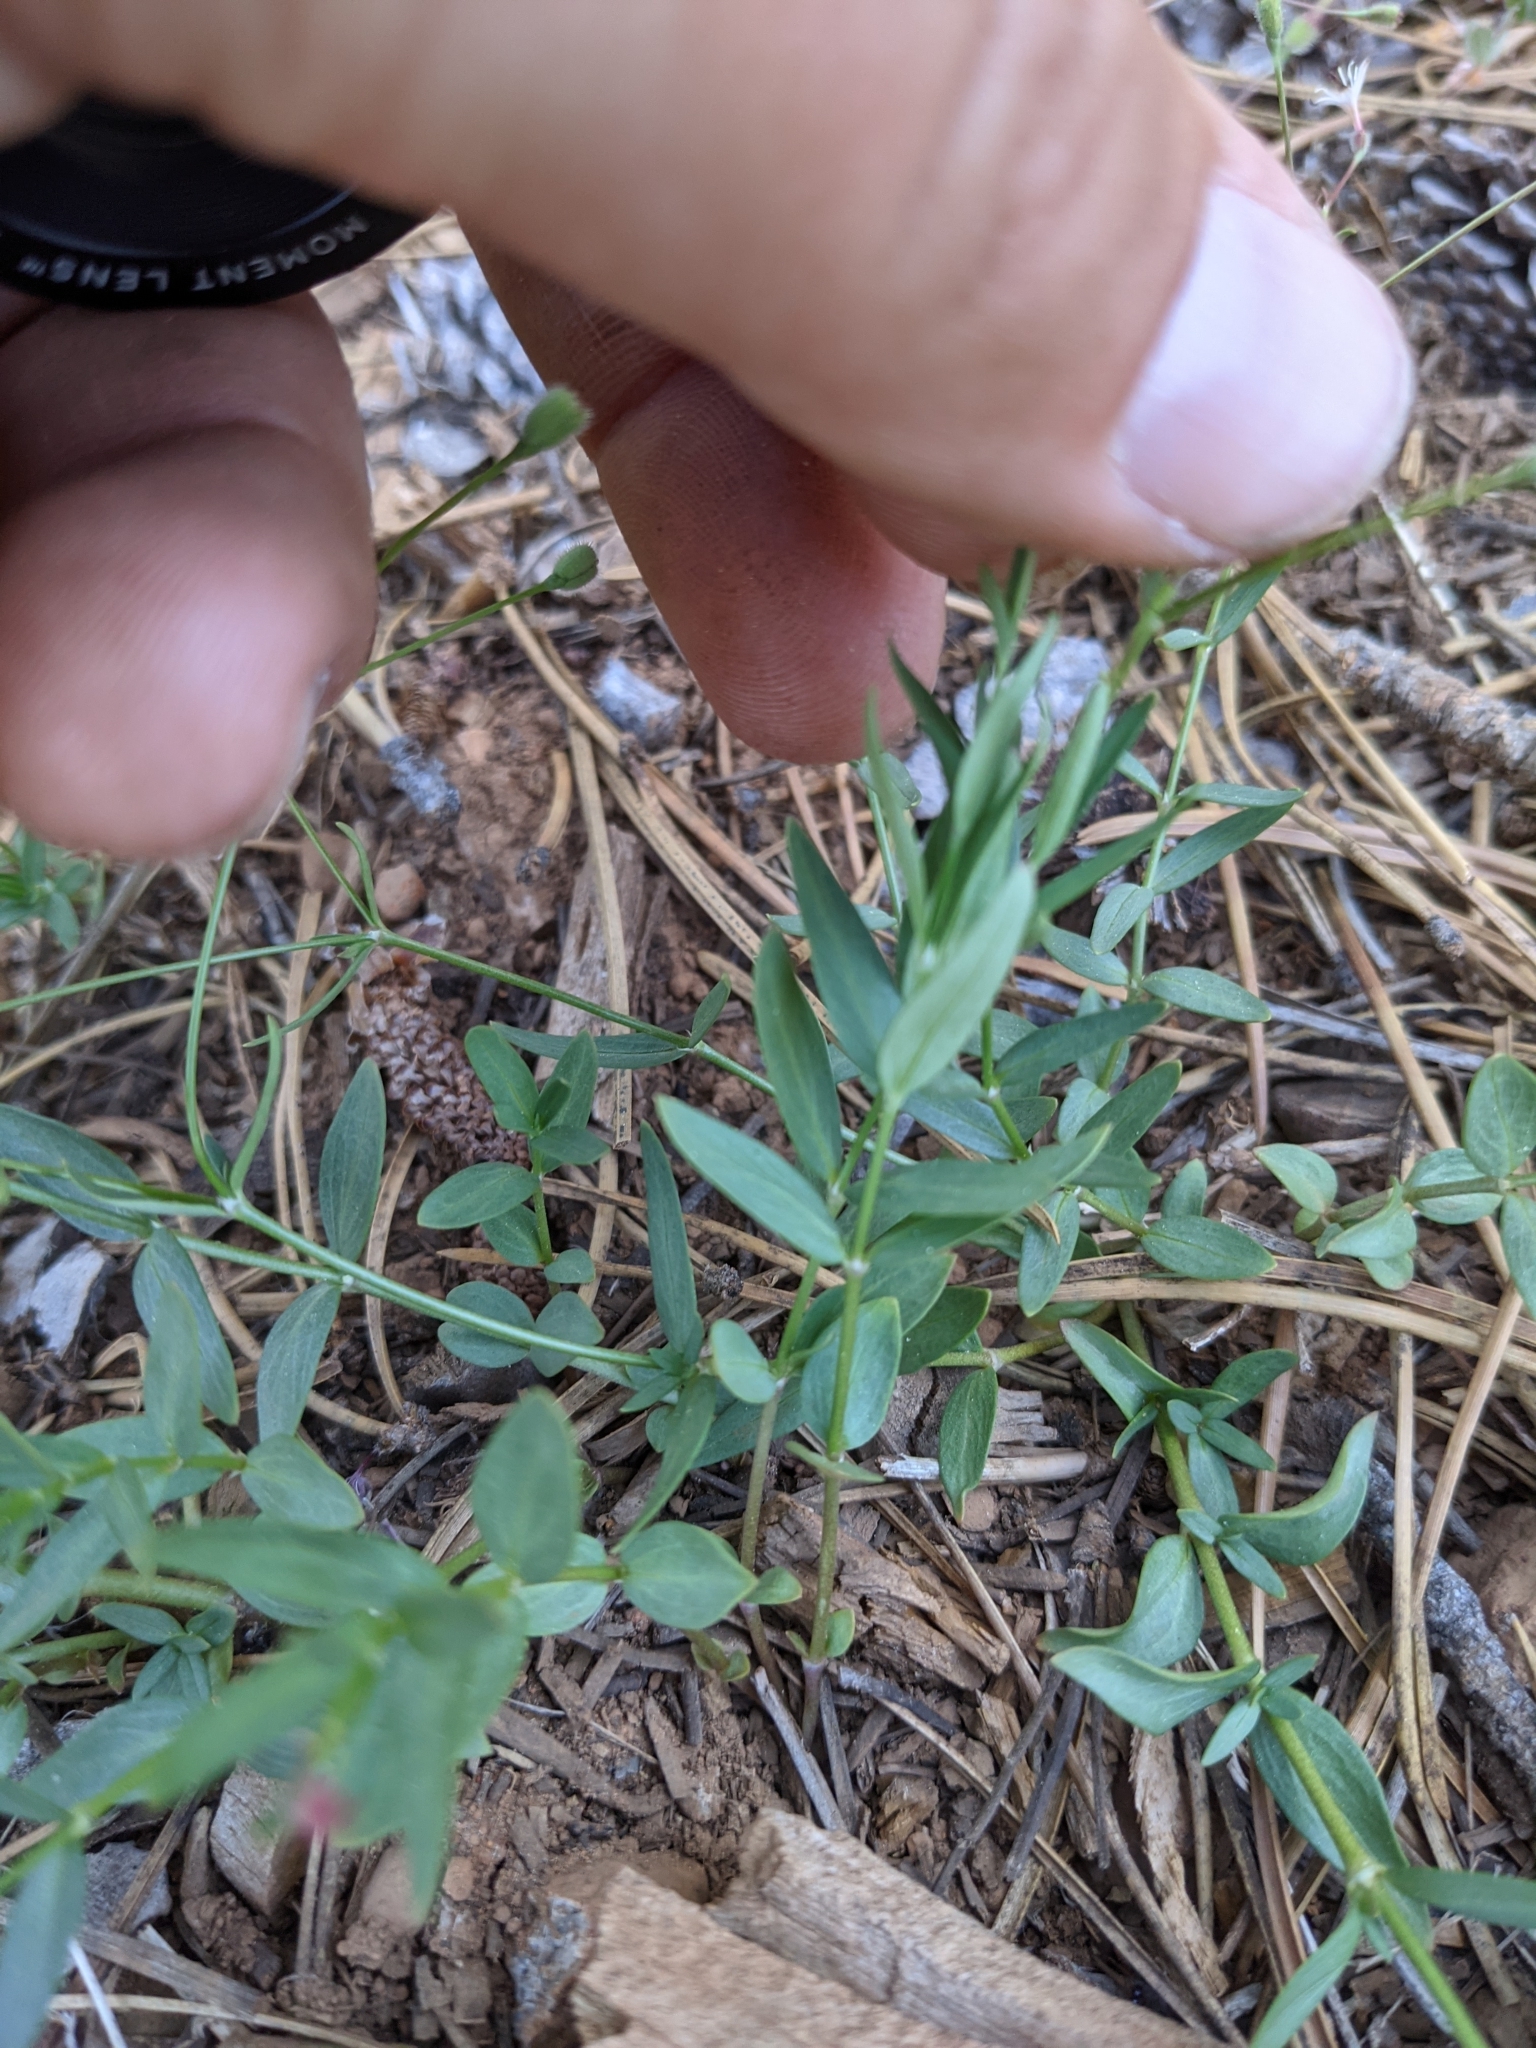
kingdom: Plantae
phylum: Tracheophyta
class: Magnoliopsida
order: Gentianales
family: Rubiaceae
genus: Kelloggia
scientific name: Kelloggia galioides
